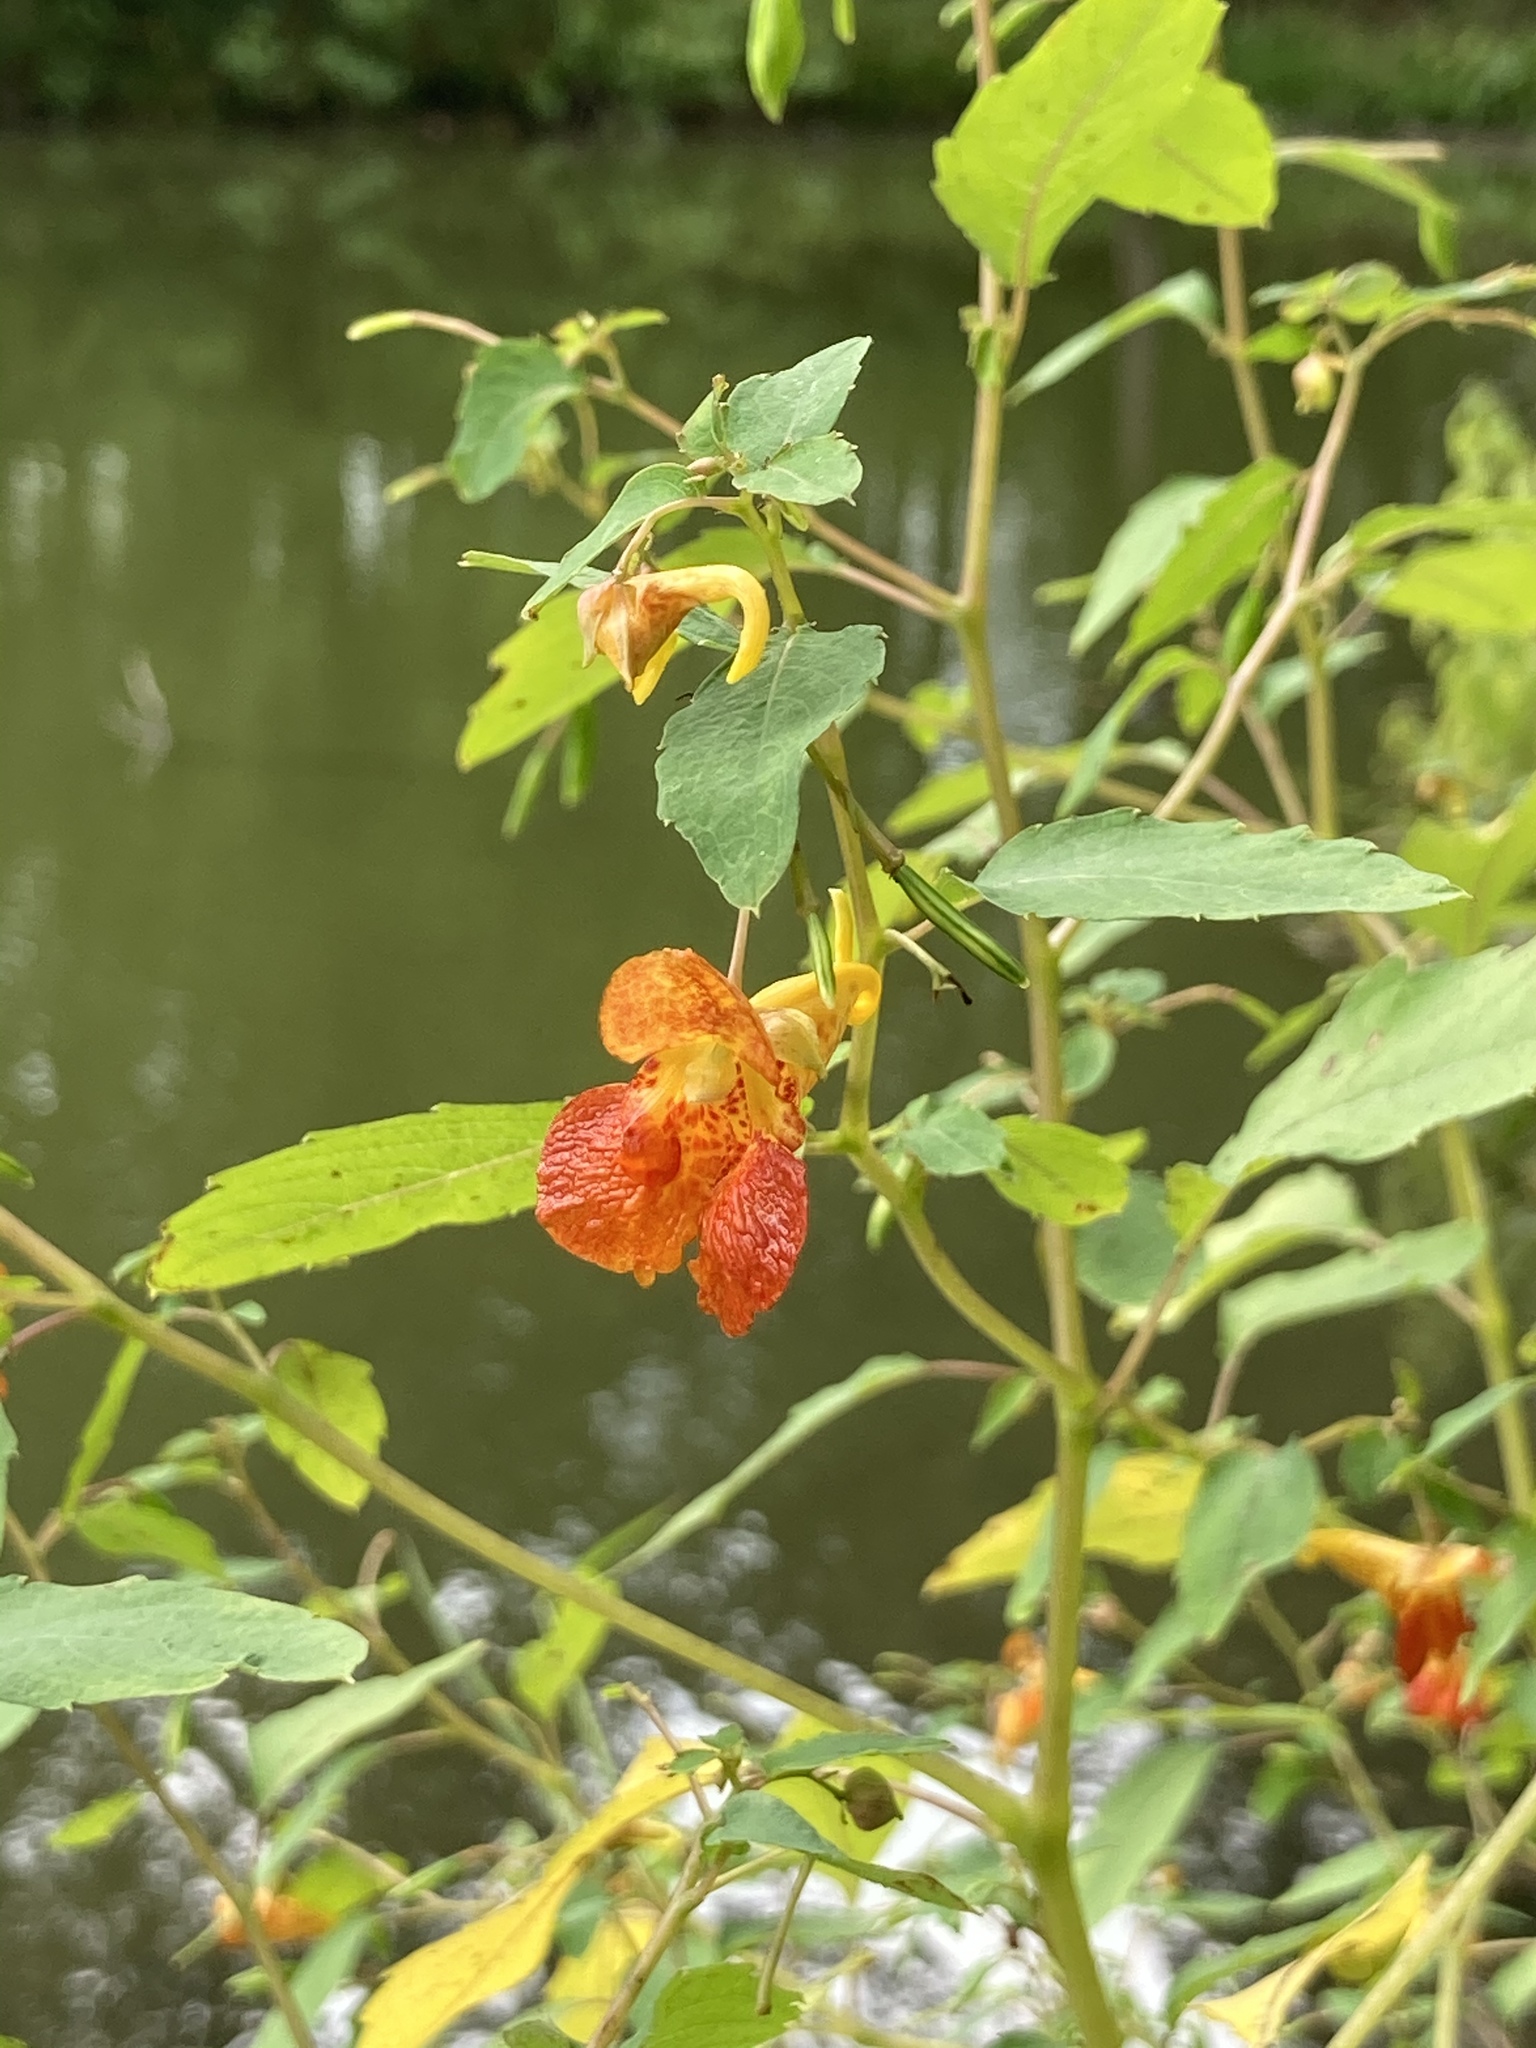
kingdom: Plantae
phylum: Tracheophyta
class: Magnoliopsida
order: Ericales
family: Balsaminaceae
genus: Impatiens
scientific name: Impatiens capensis
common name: Orange balsam
